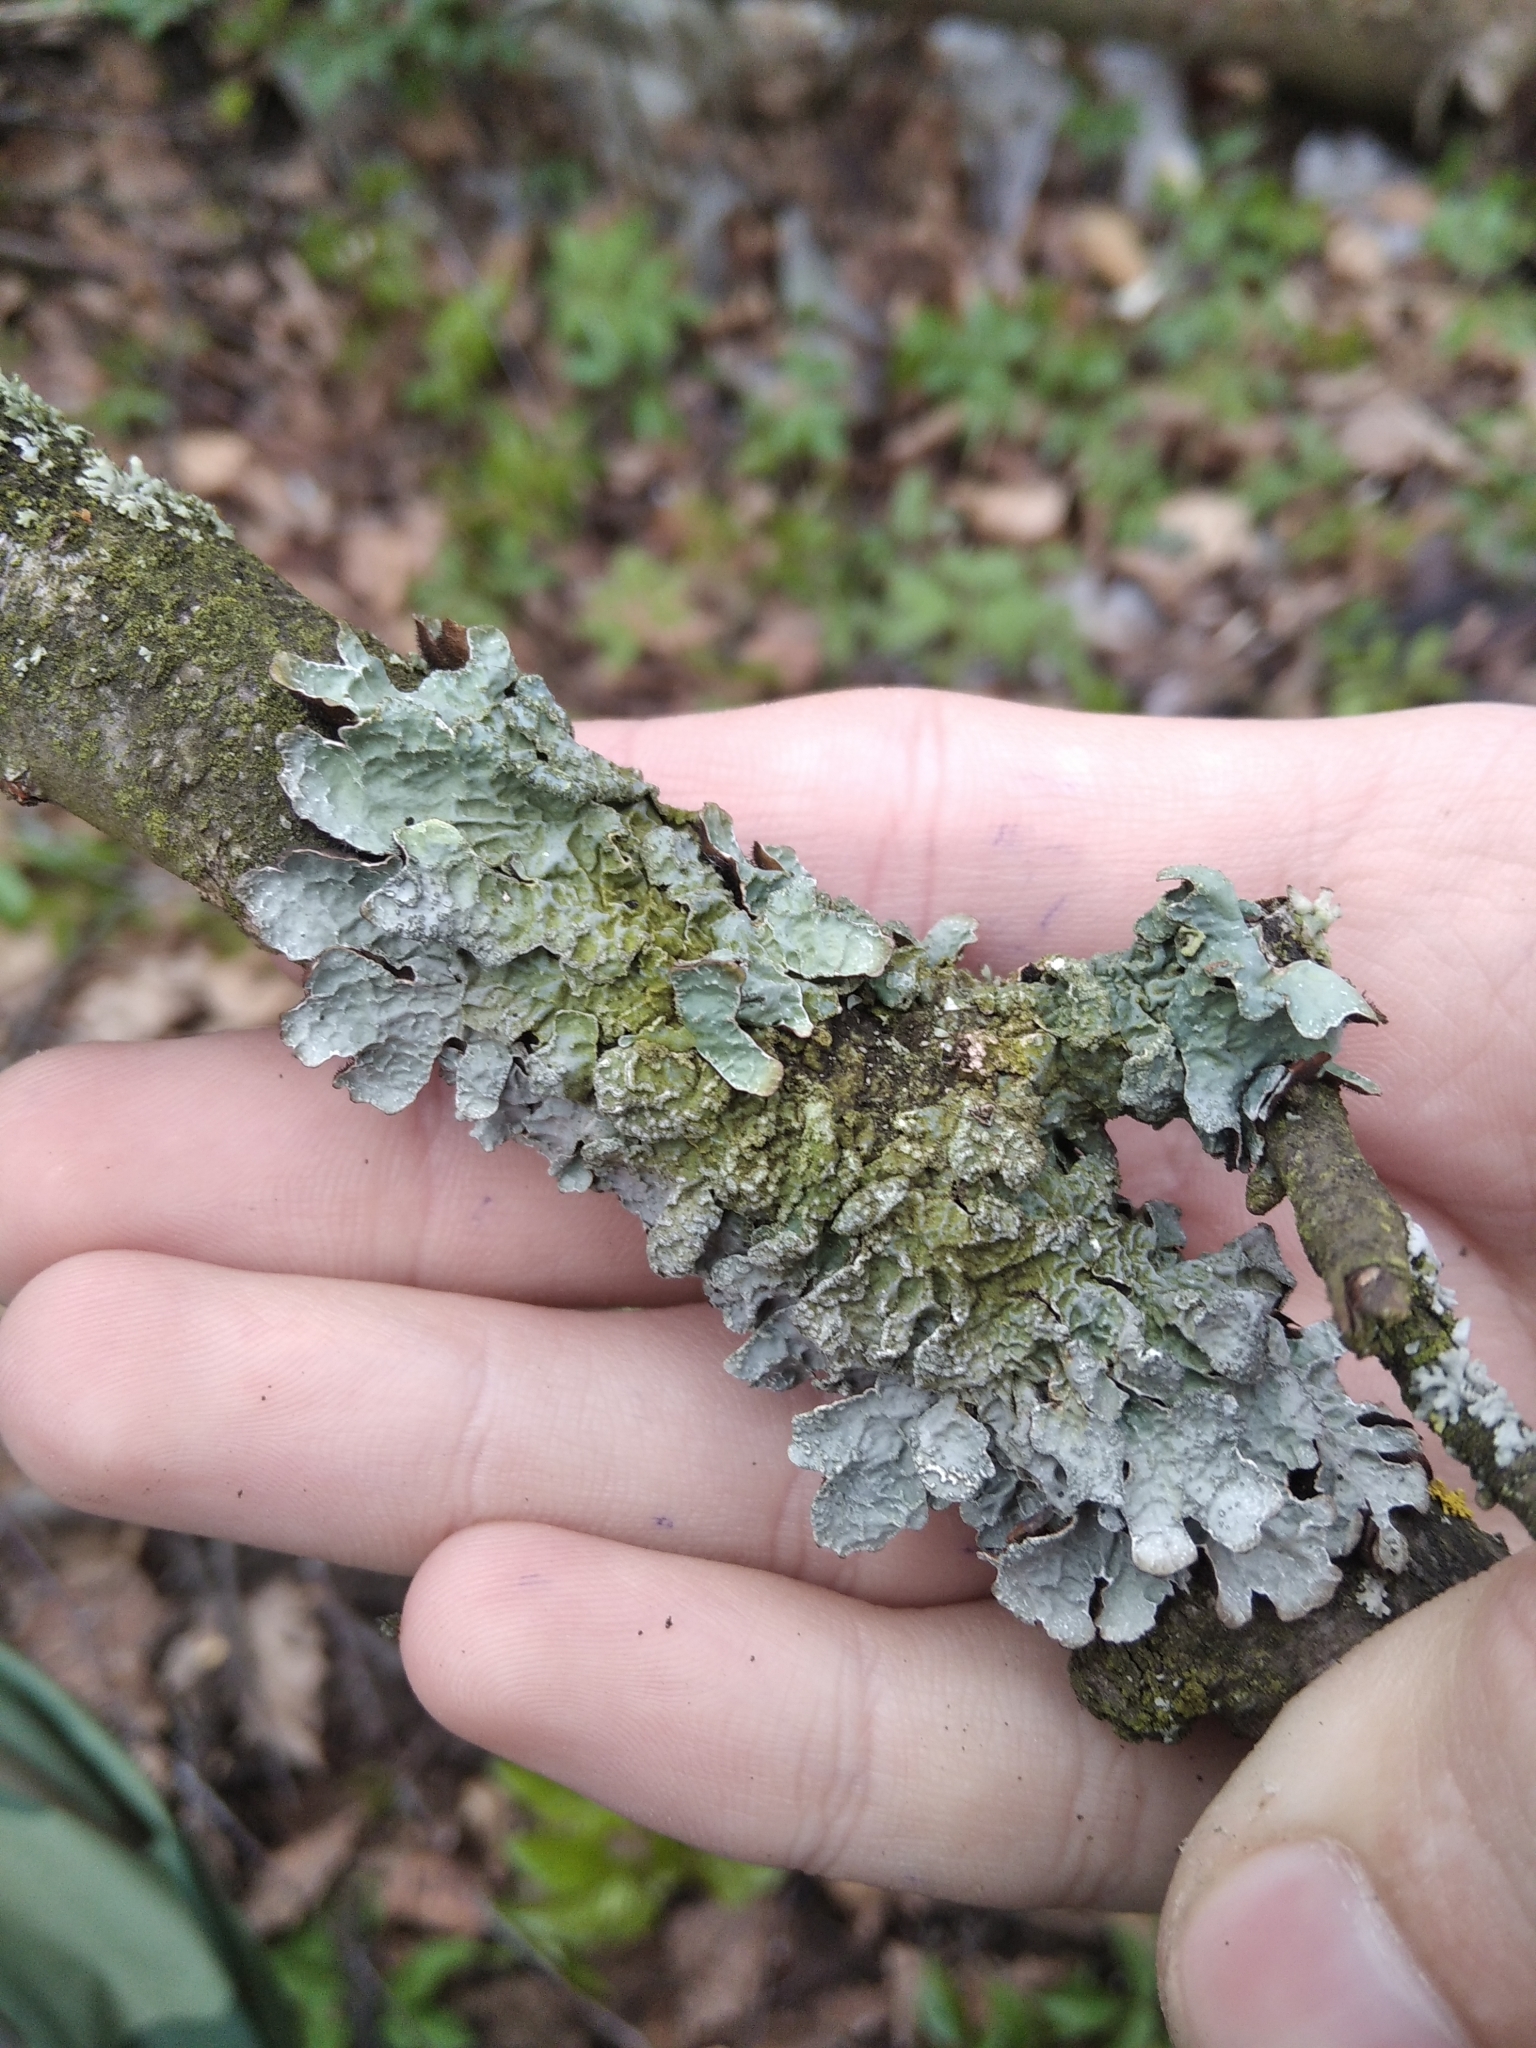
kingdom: Fungi
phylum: Ascomycota
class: Lecanoromycetes
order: Lecanorales
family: Parmeliaceae
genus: Parmelia
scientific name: Parmelia sulcata
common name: Netted shield lichen
